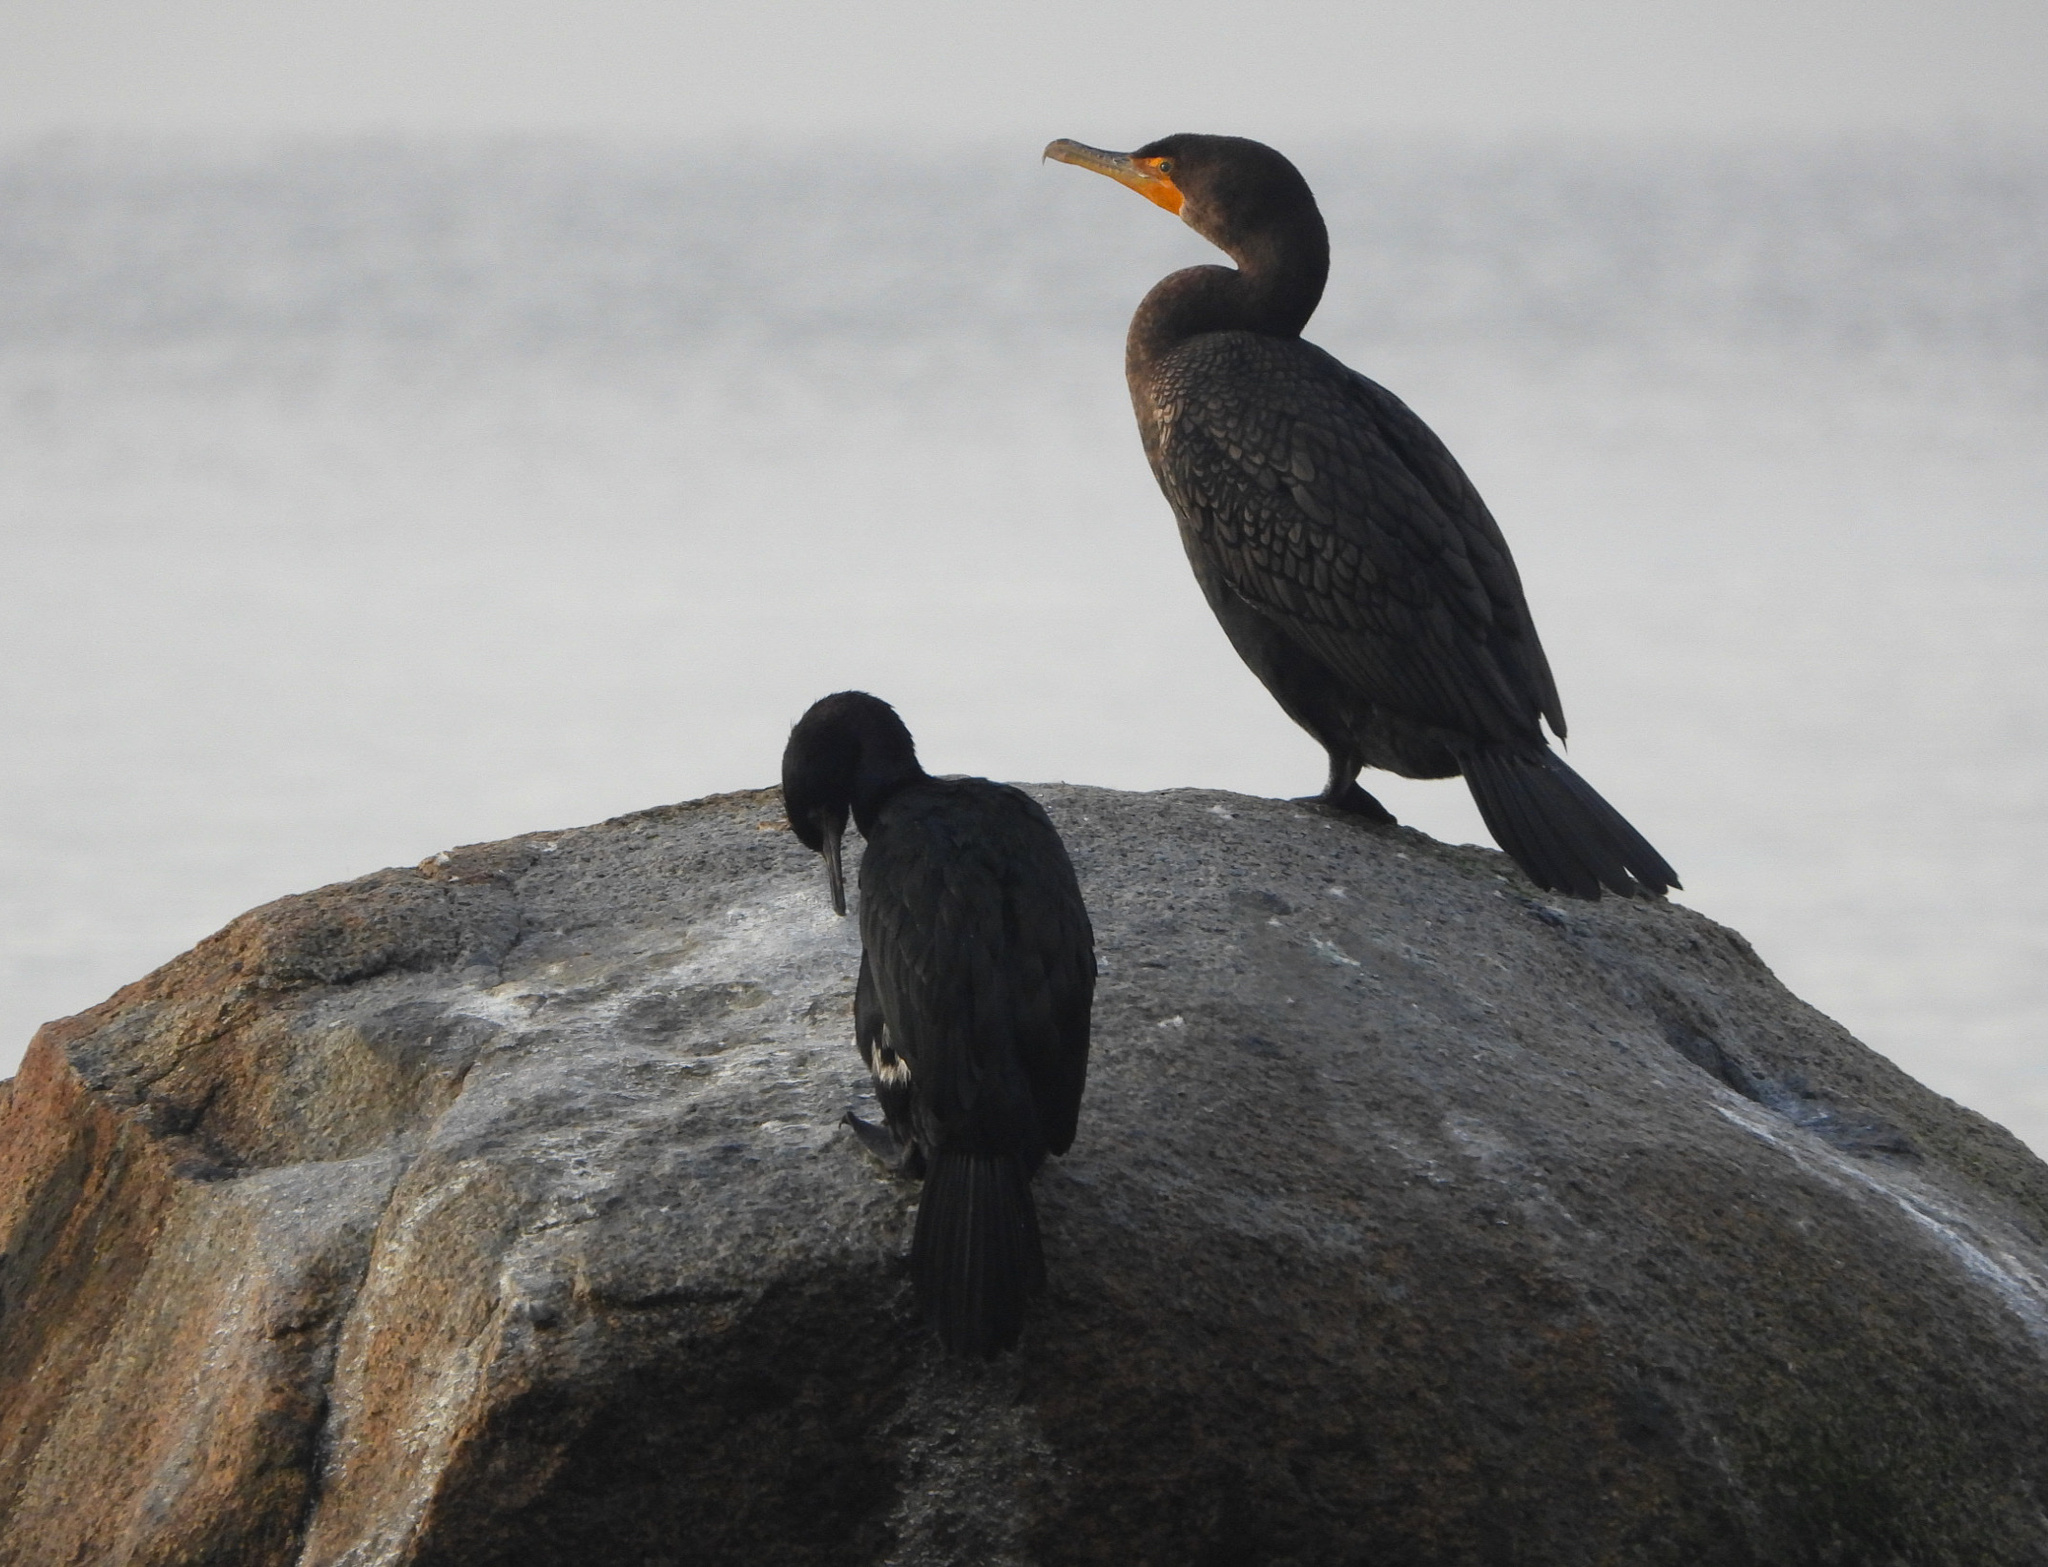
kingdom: Animalia
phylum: Chordata
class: Aves
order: Suliformes
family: Phalacrocoracidae
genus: Phalacrocorax
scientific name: Phalacrocorax auritus
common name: Double-crested cormorant
